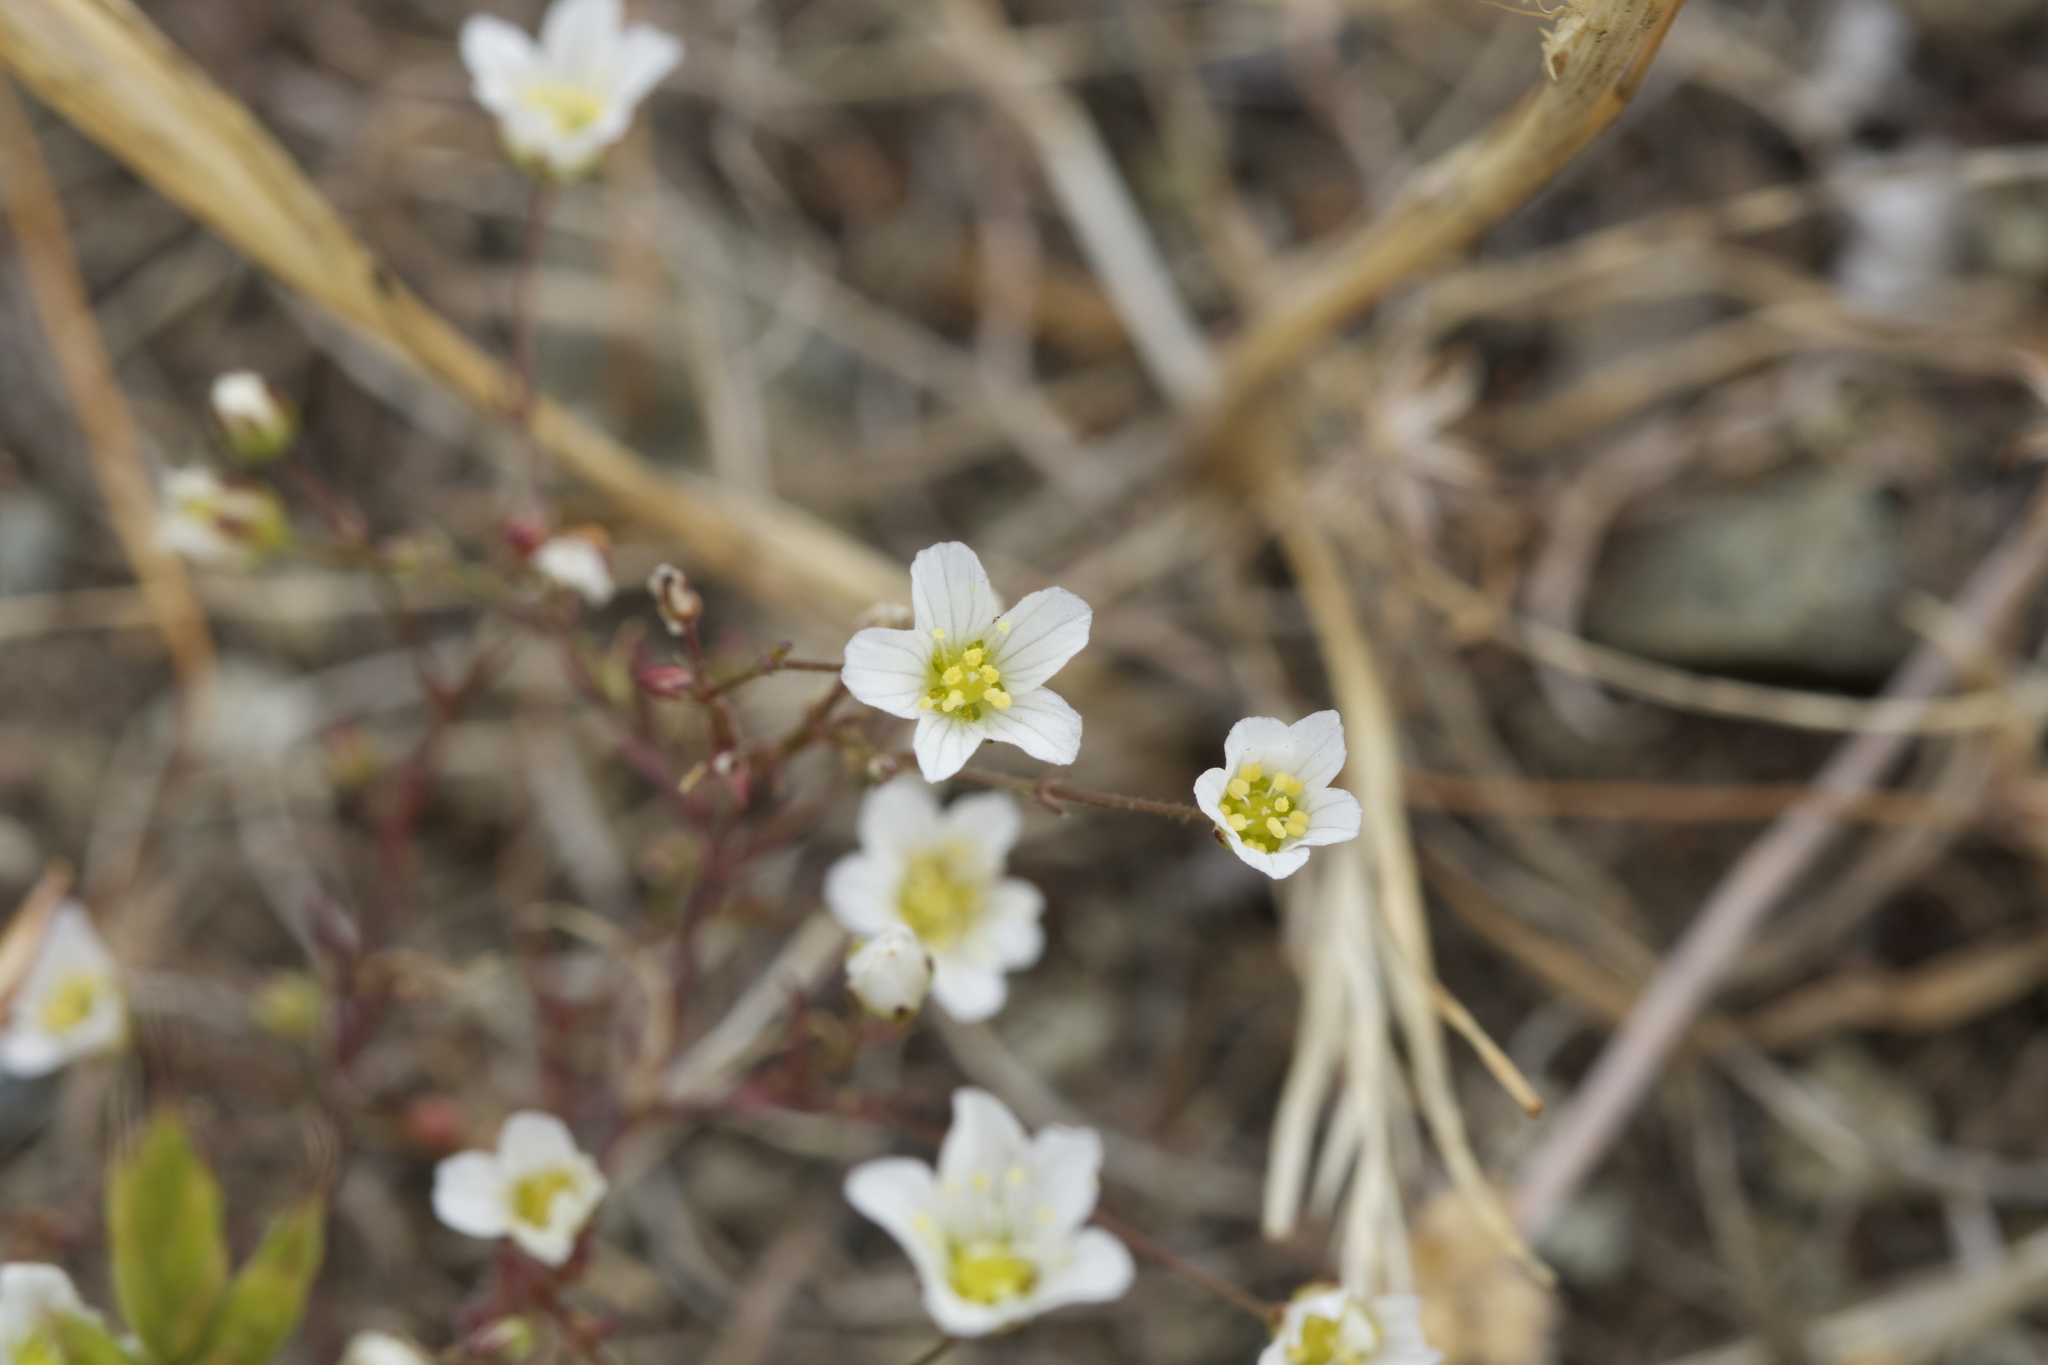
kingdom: Plantae
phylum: Tracheophyta
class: Magnoliopsida
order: Caryophyllales
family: Caryophyllaceae
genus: Sabulina
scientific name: Sabulina douglasii
